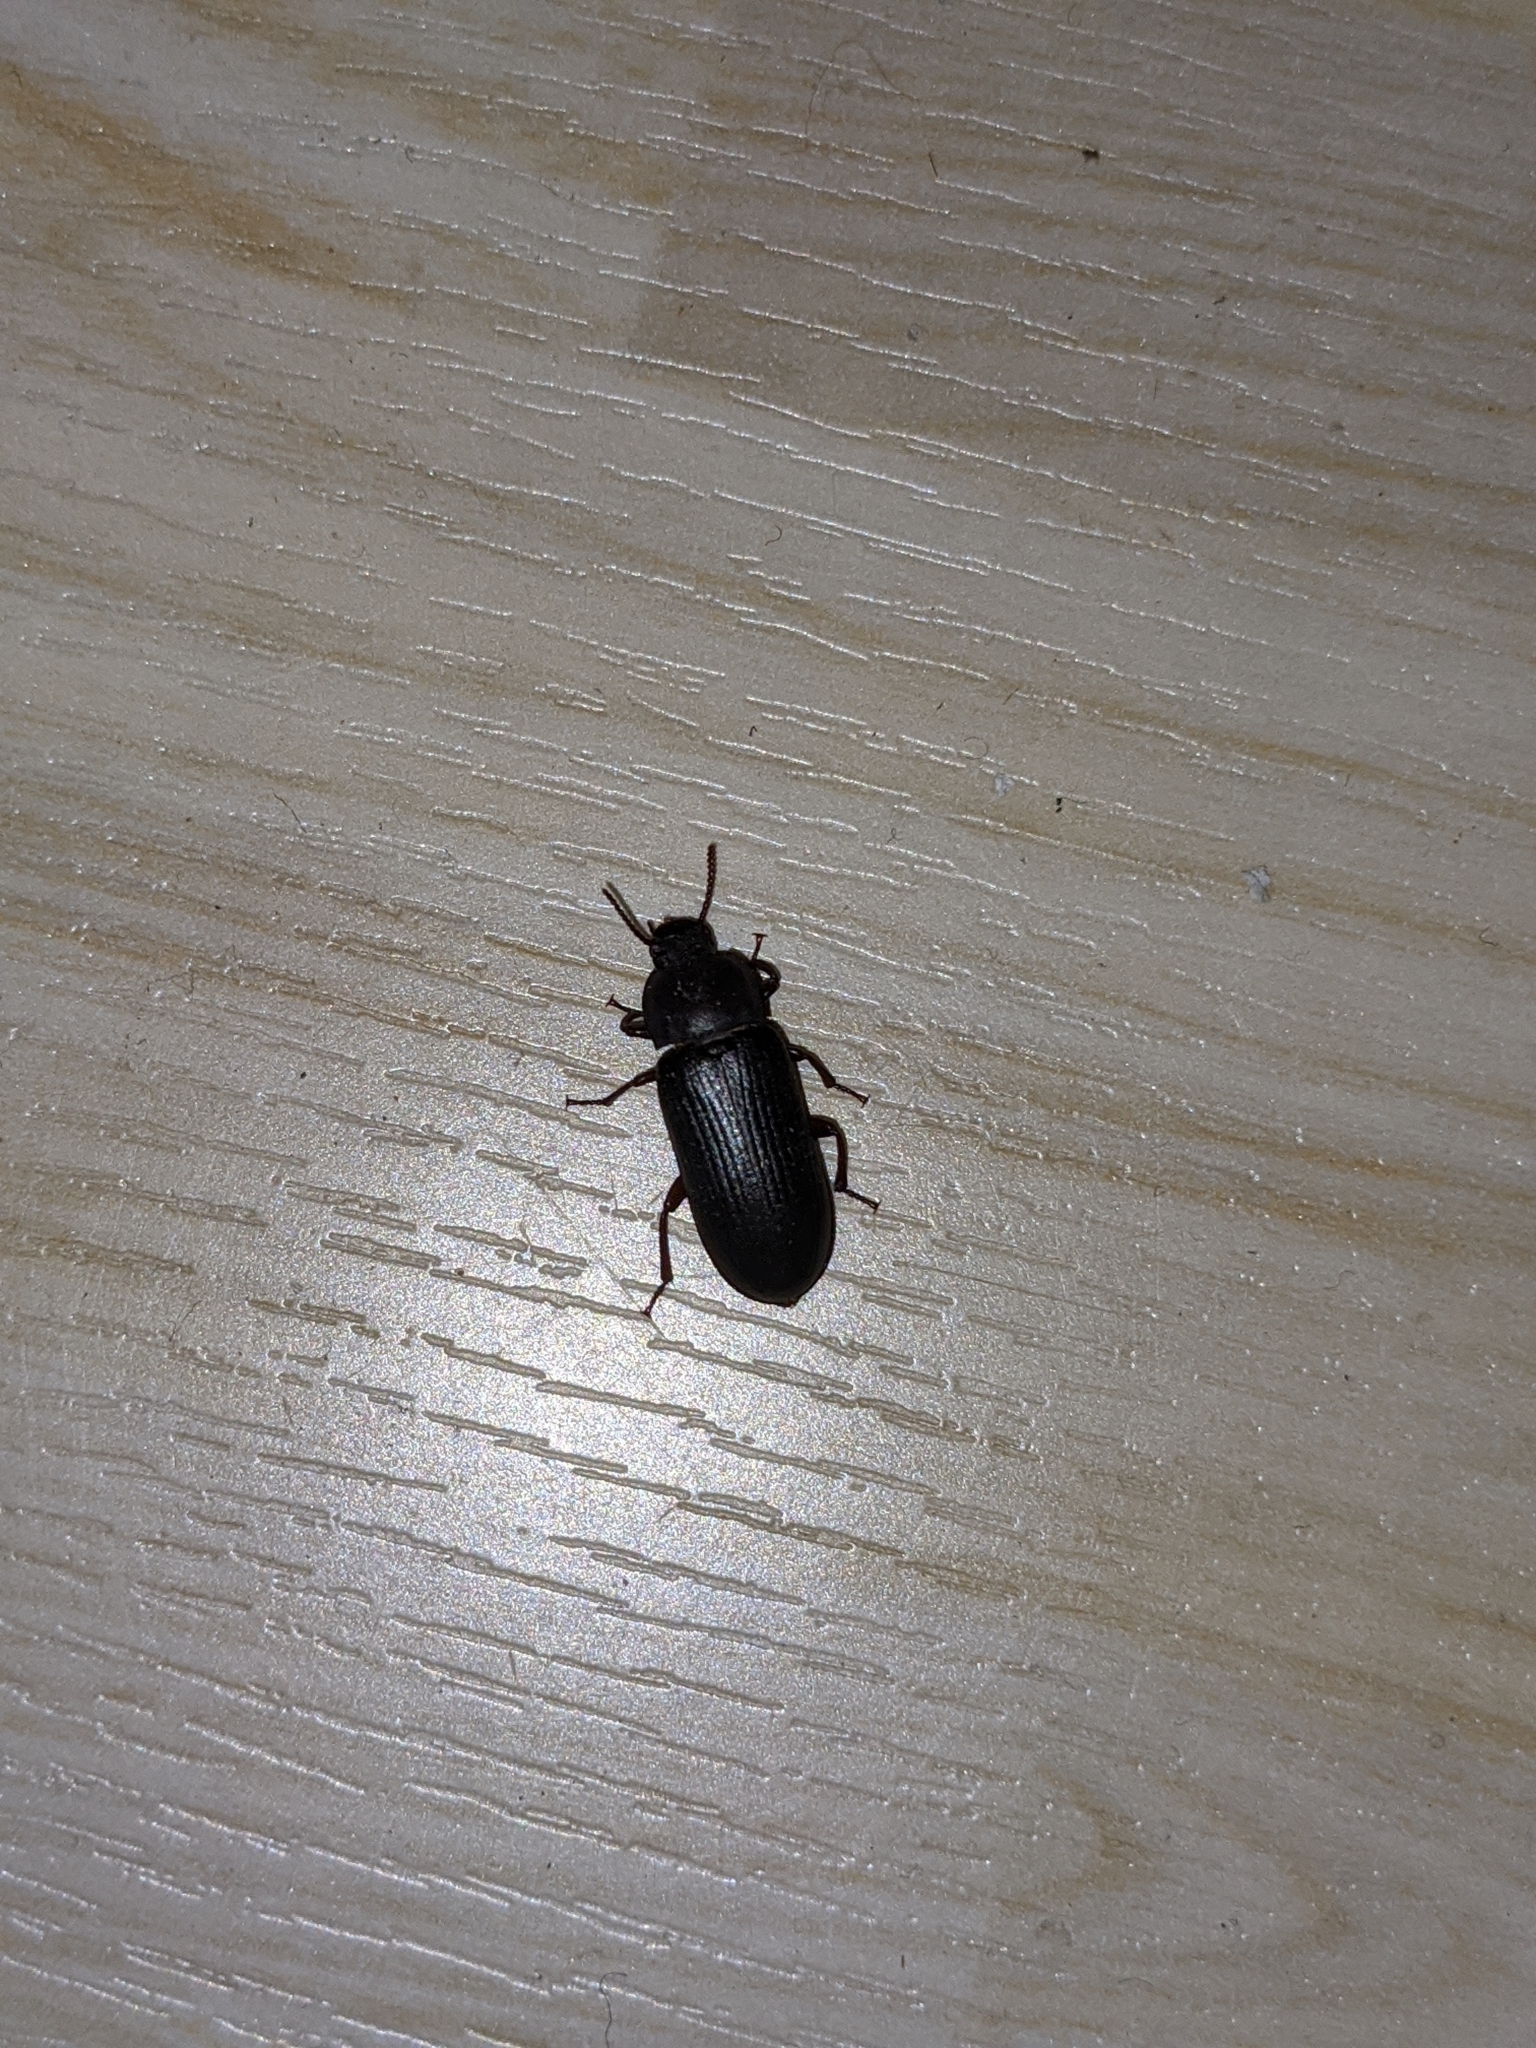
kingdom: Animalia
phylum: Arthropoda
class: Insecta
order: Coleoptera
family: Tenebrionidae
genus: Tenebrio
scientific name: Tenebrio molitor
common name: Hardback beetle
